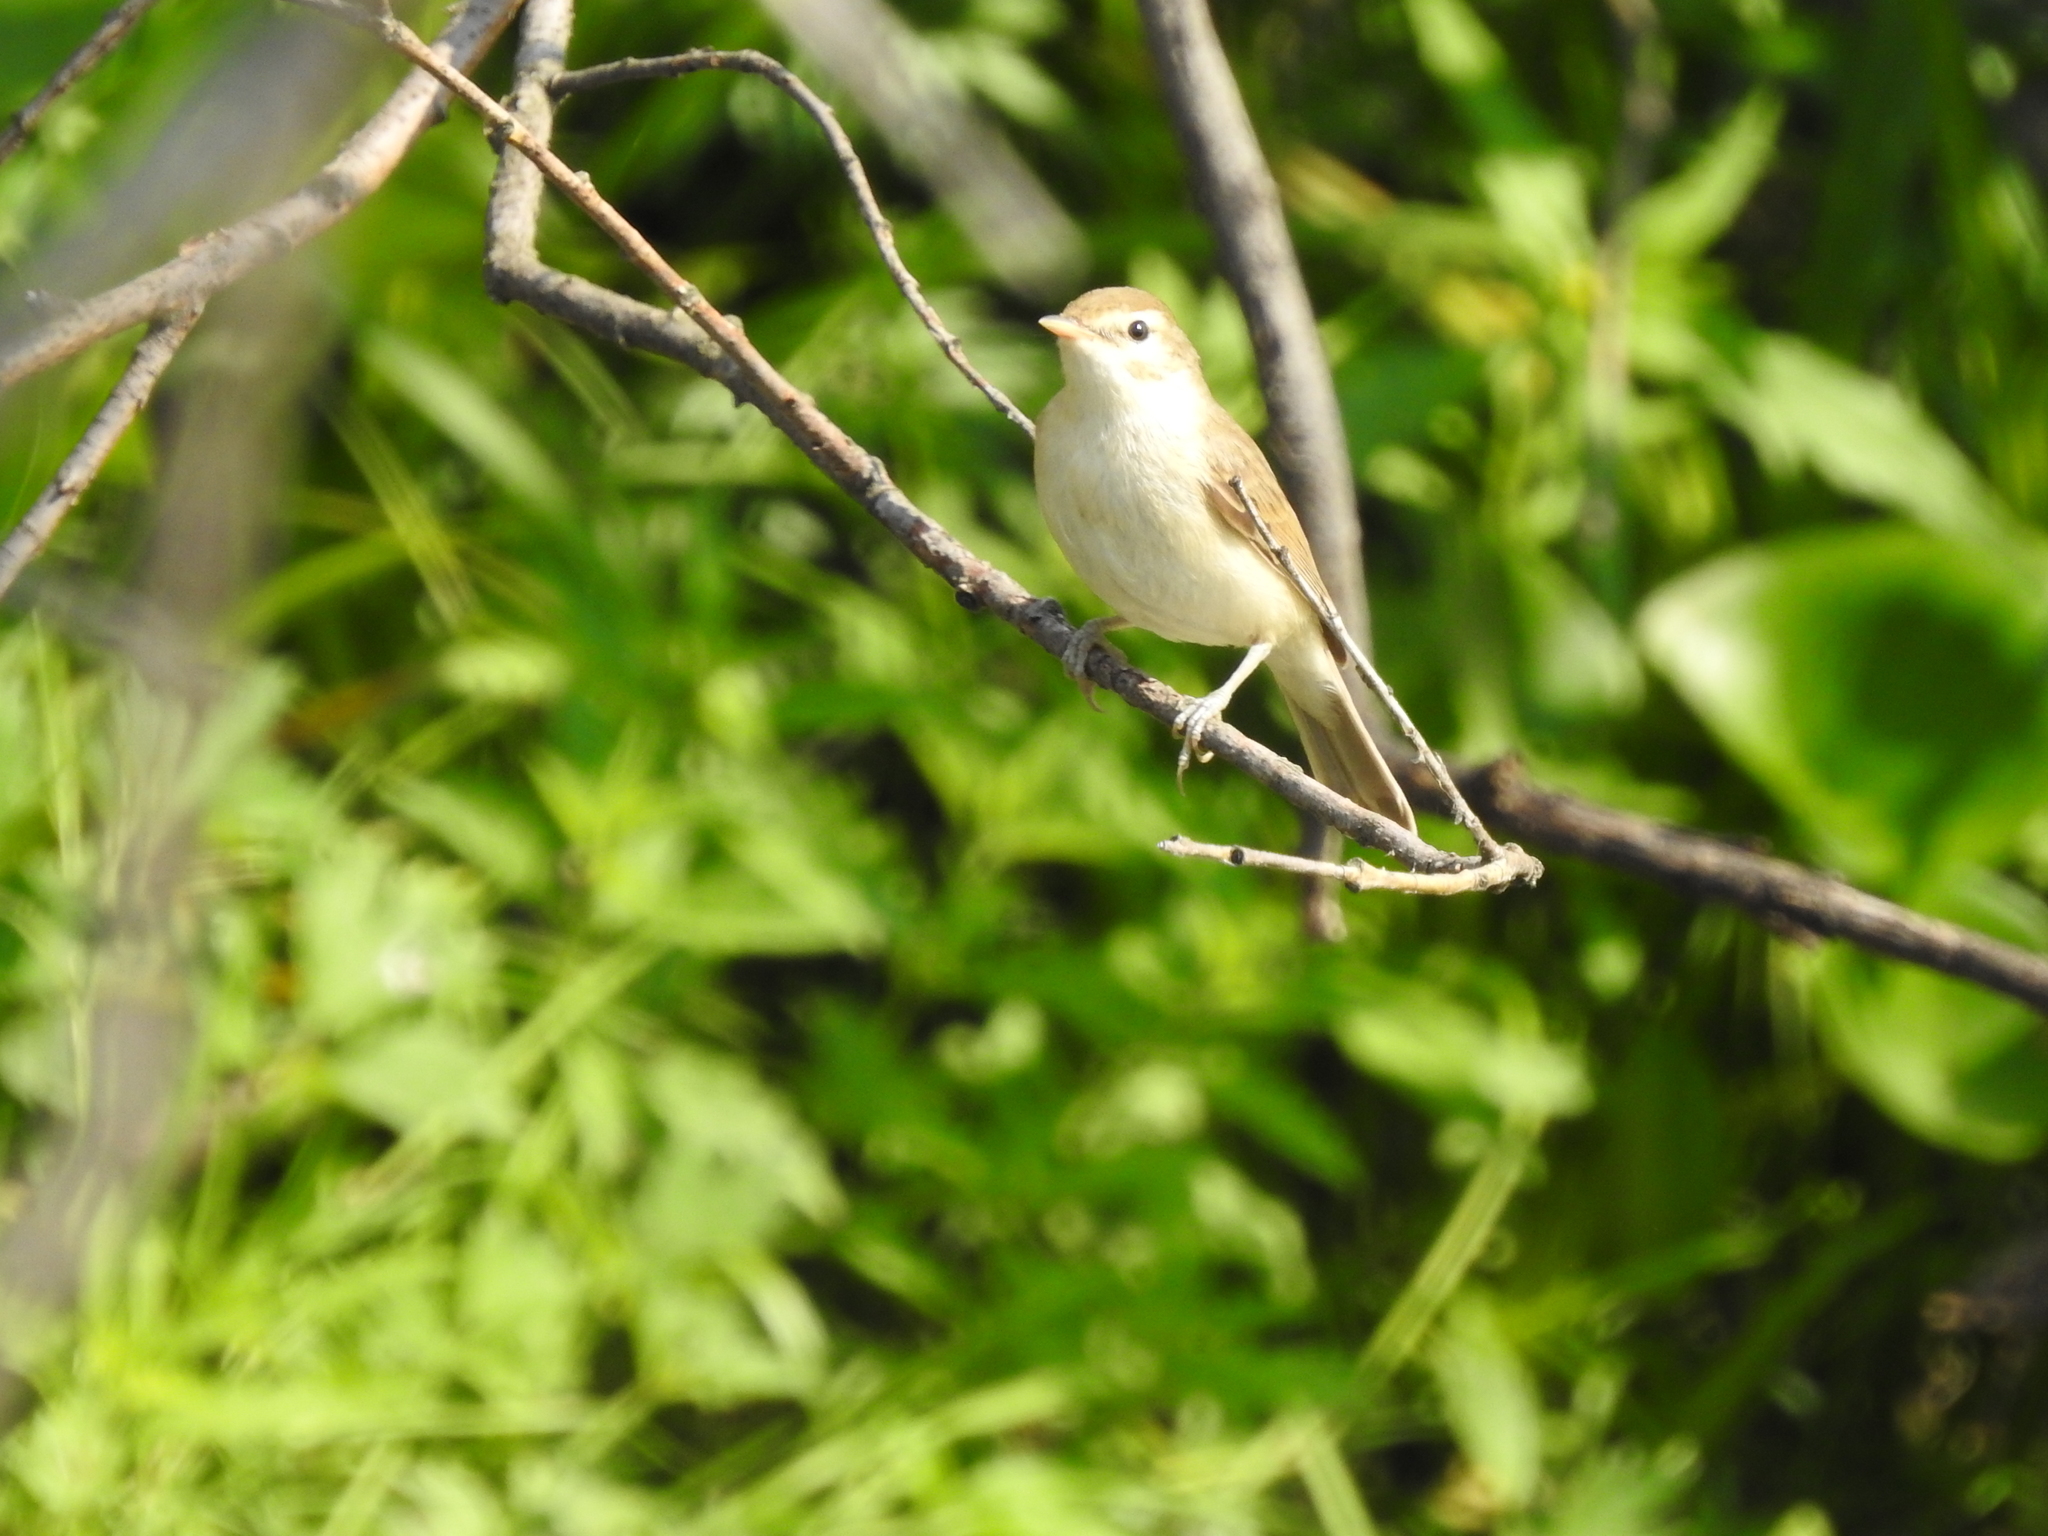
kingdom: Animalia
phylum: Chordata
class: Aves
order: Passeriformes
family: Acrocephalidae
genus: Iduna
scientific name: Iduna caligata
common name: Booted warbler
